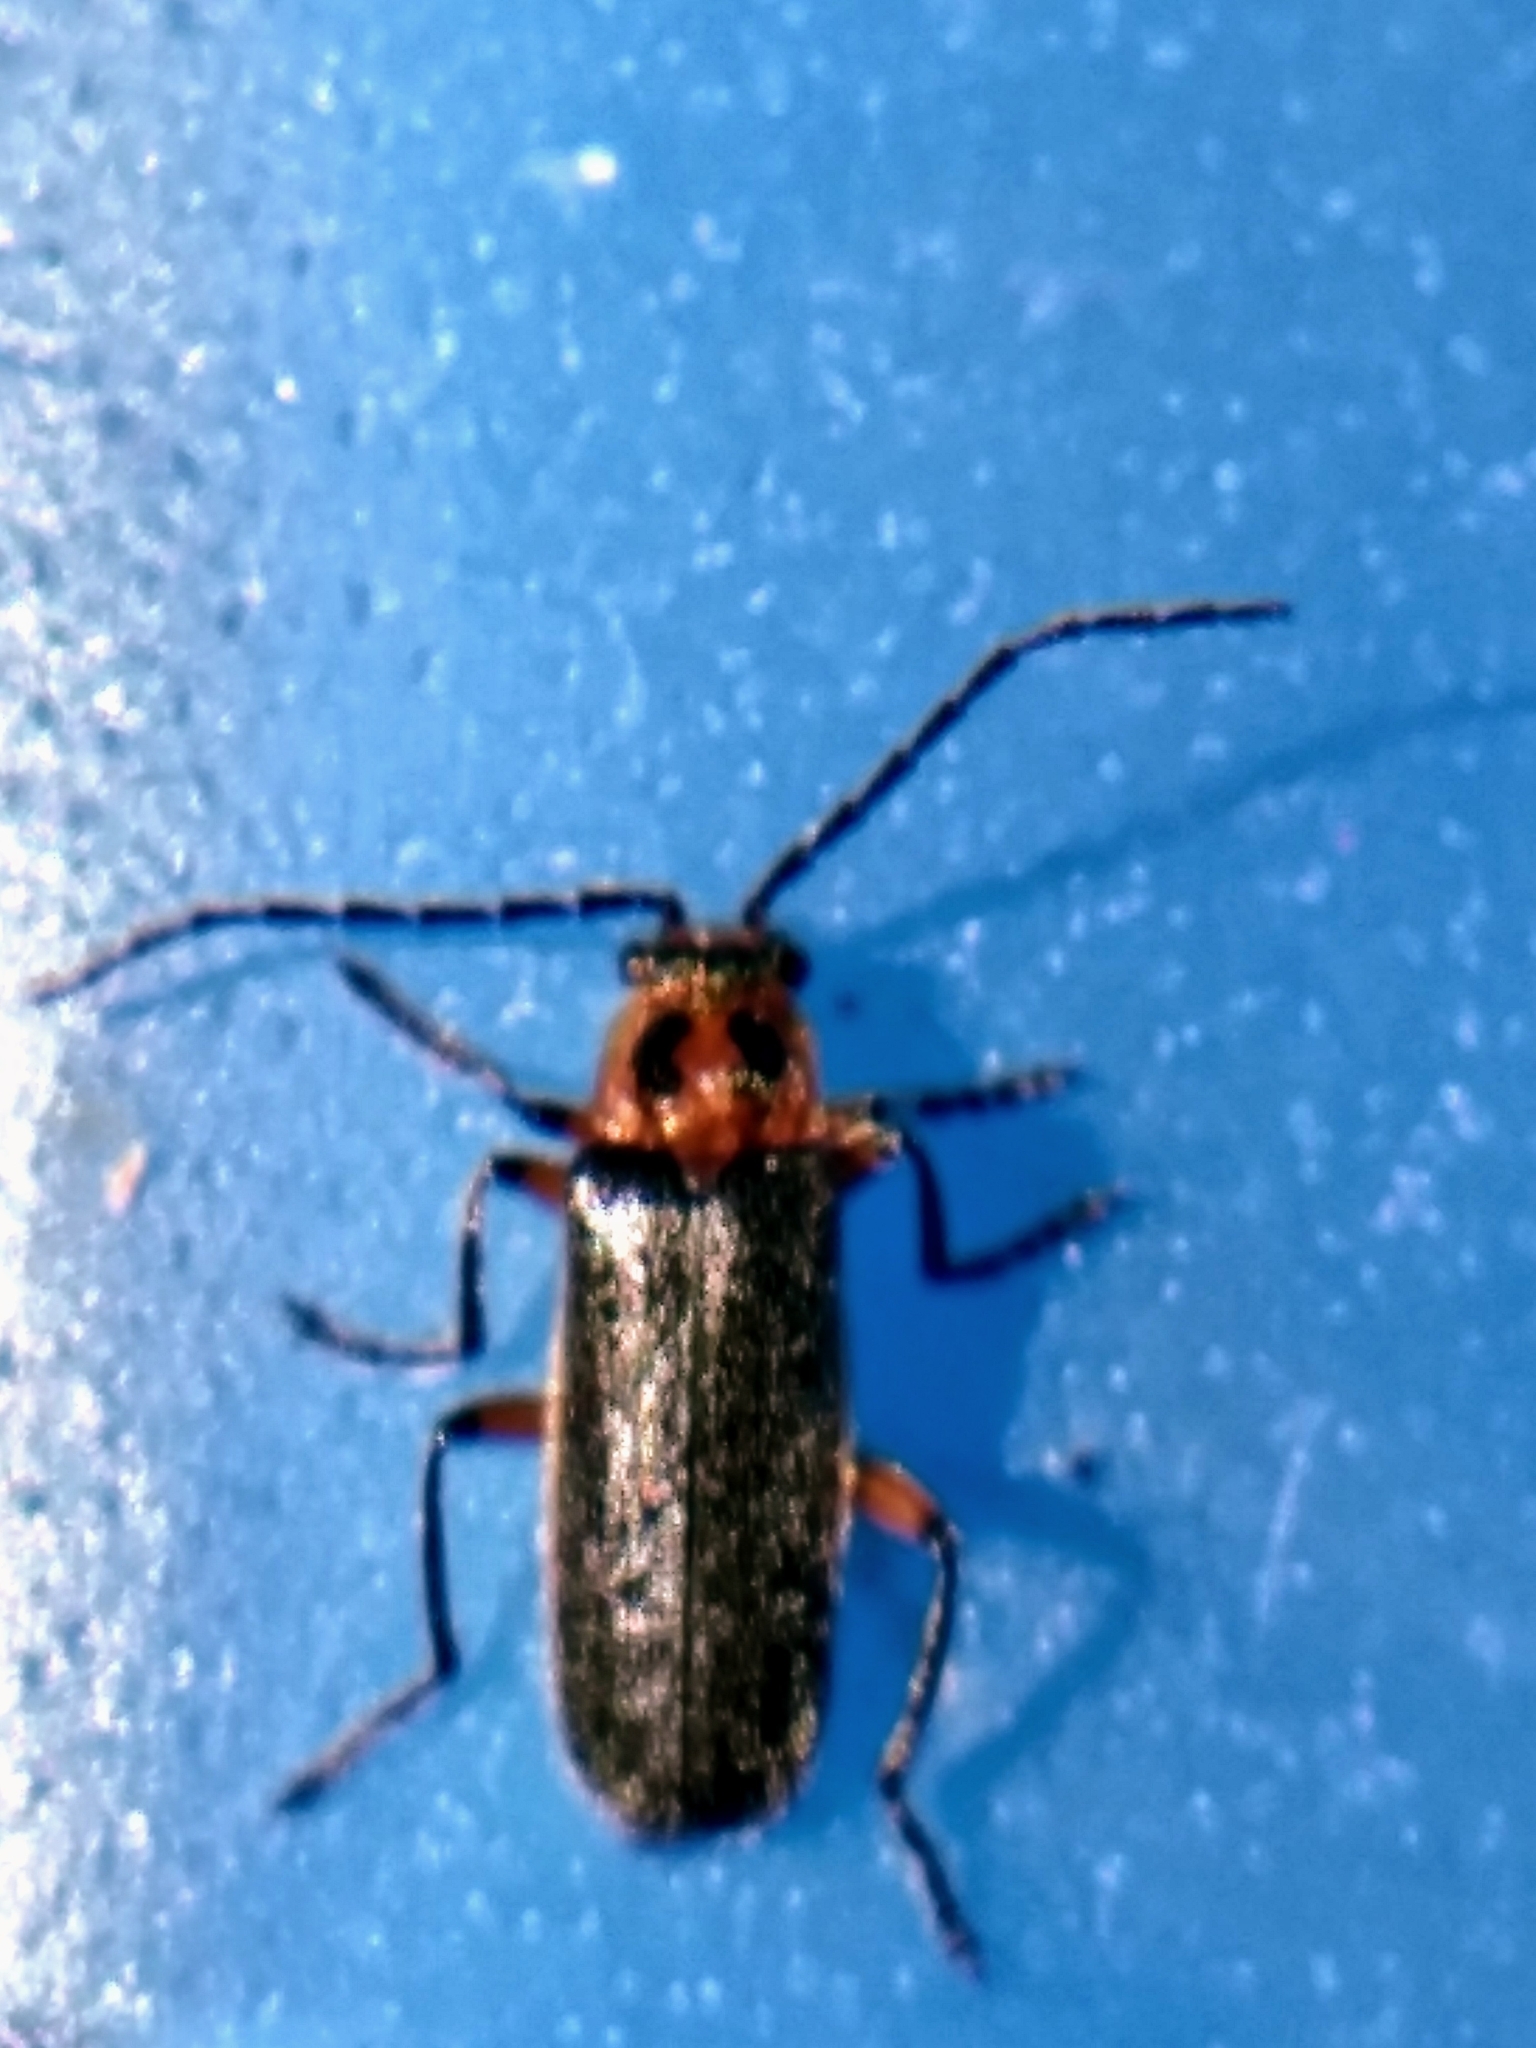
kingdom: Animalia
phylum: Arthropoda
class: Insecta
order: Coleoptera
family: Cantharidae
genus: Atalantycha
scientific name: Atalantycha bilineata
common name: Two-lined leatherwing
